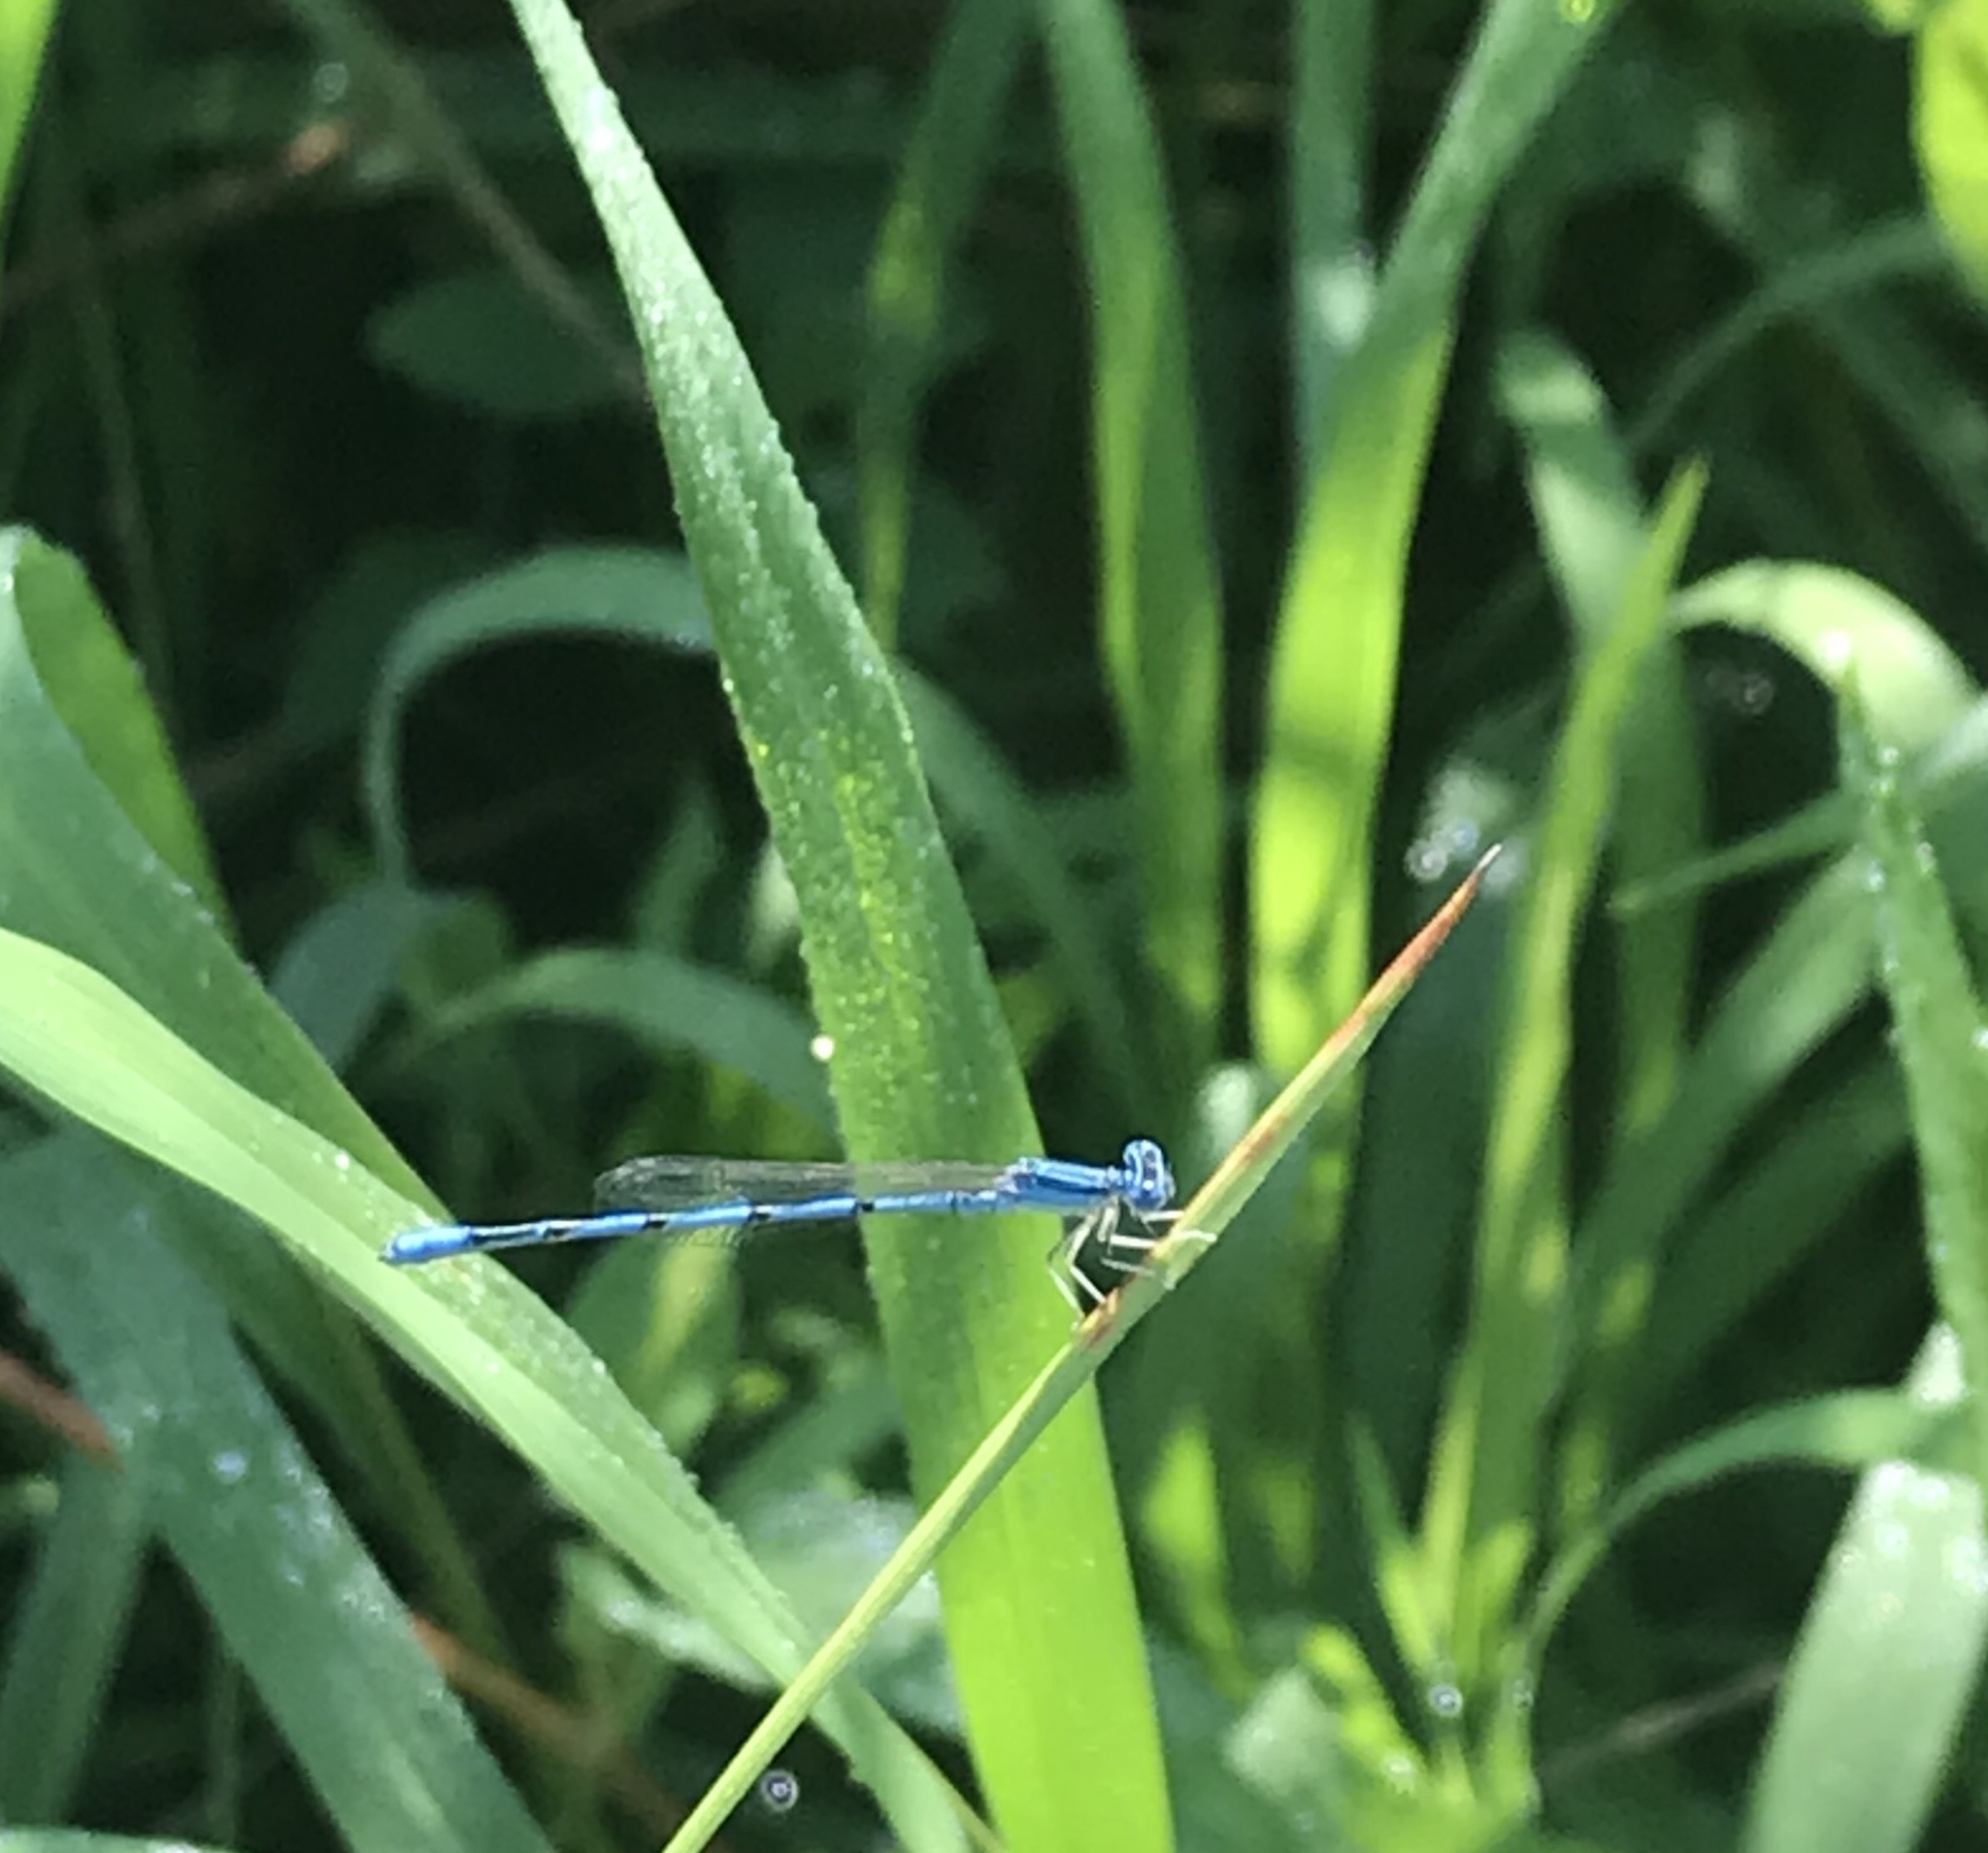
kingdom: Animalia
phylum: Arthropoda
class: Insecta
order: Odonata
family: Coenagrionidae
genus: Enallagma
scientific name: Enallagma basidens
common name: Double-striped bluet
